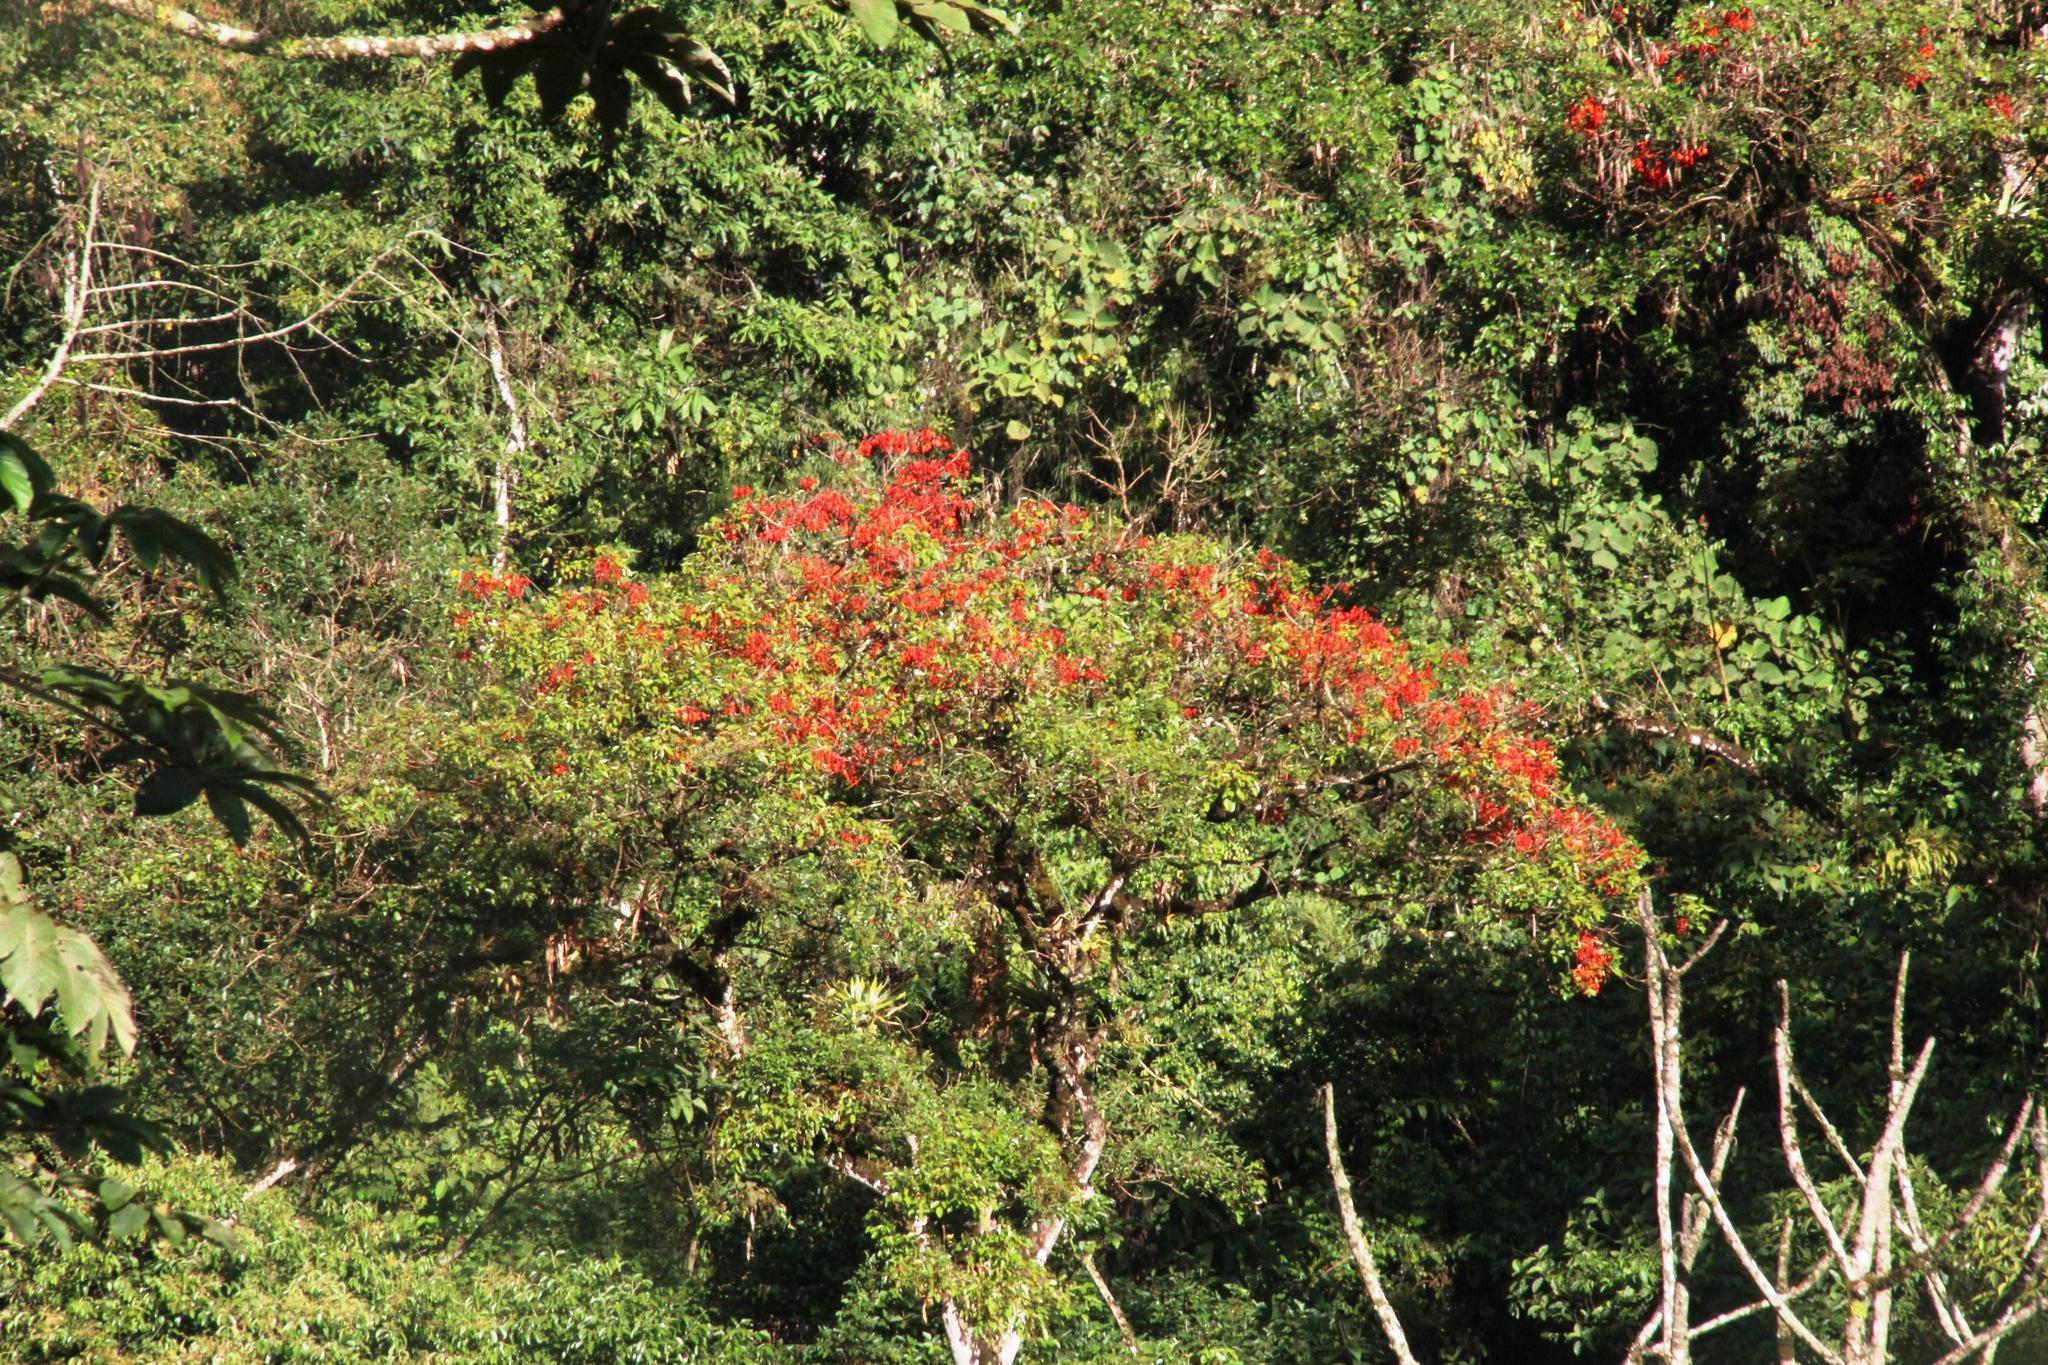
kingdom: Plantae
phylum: Tracheophyta
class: Magnoliopsida
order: Fabales
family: Fabaceae
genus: Erythrina
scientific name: Erythrina falcata
